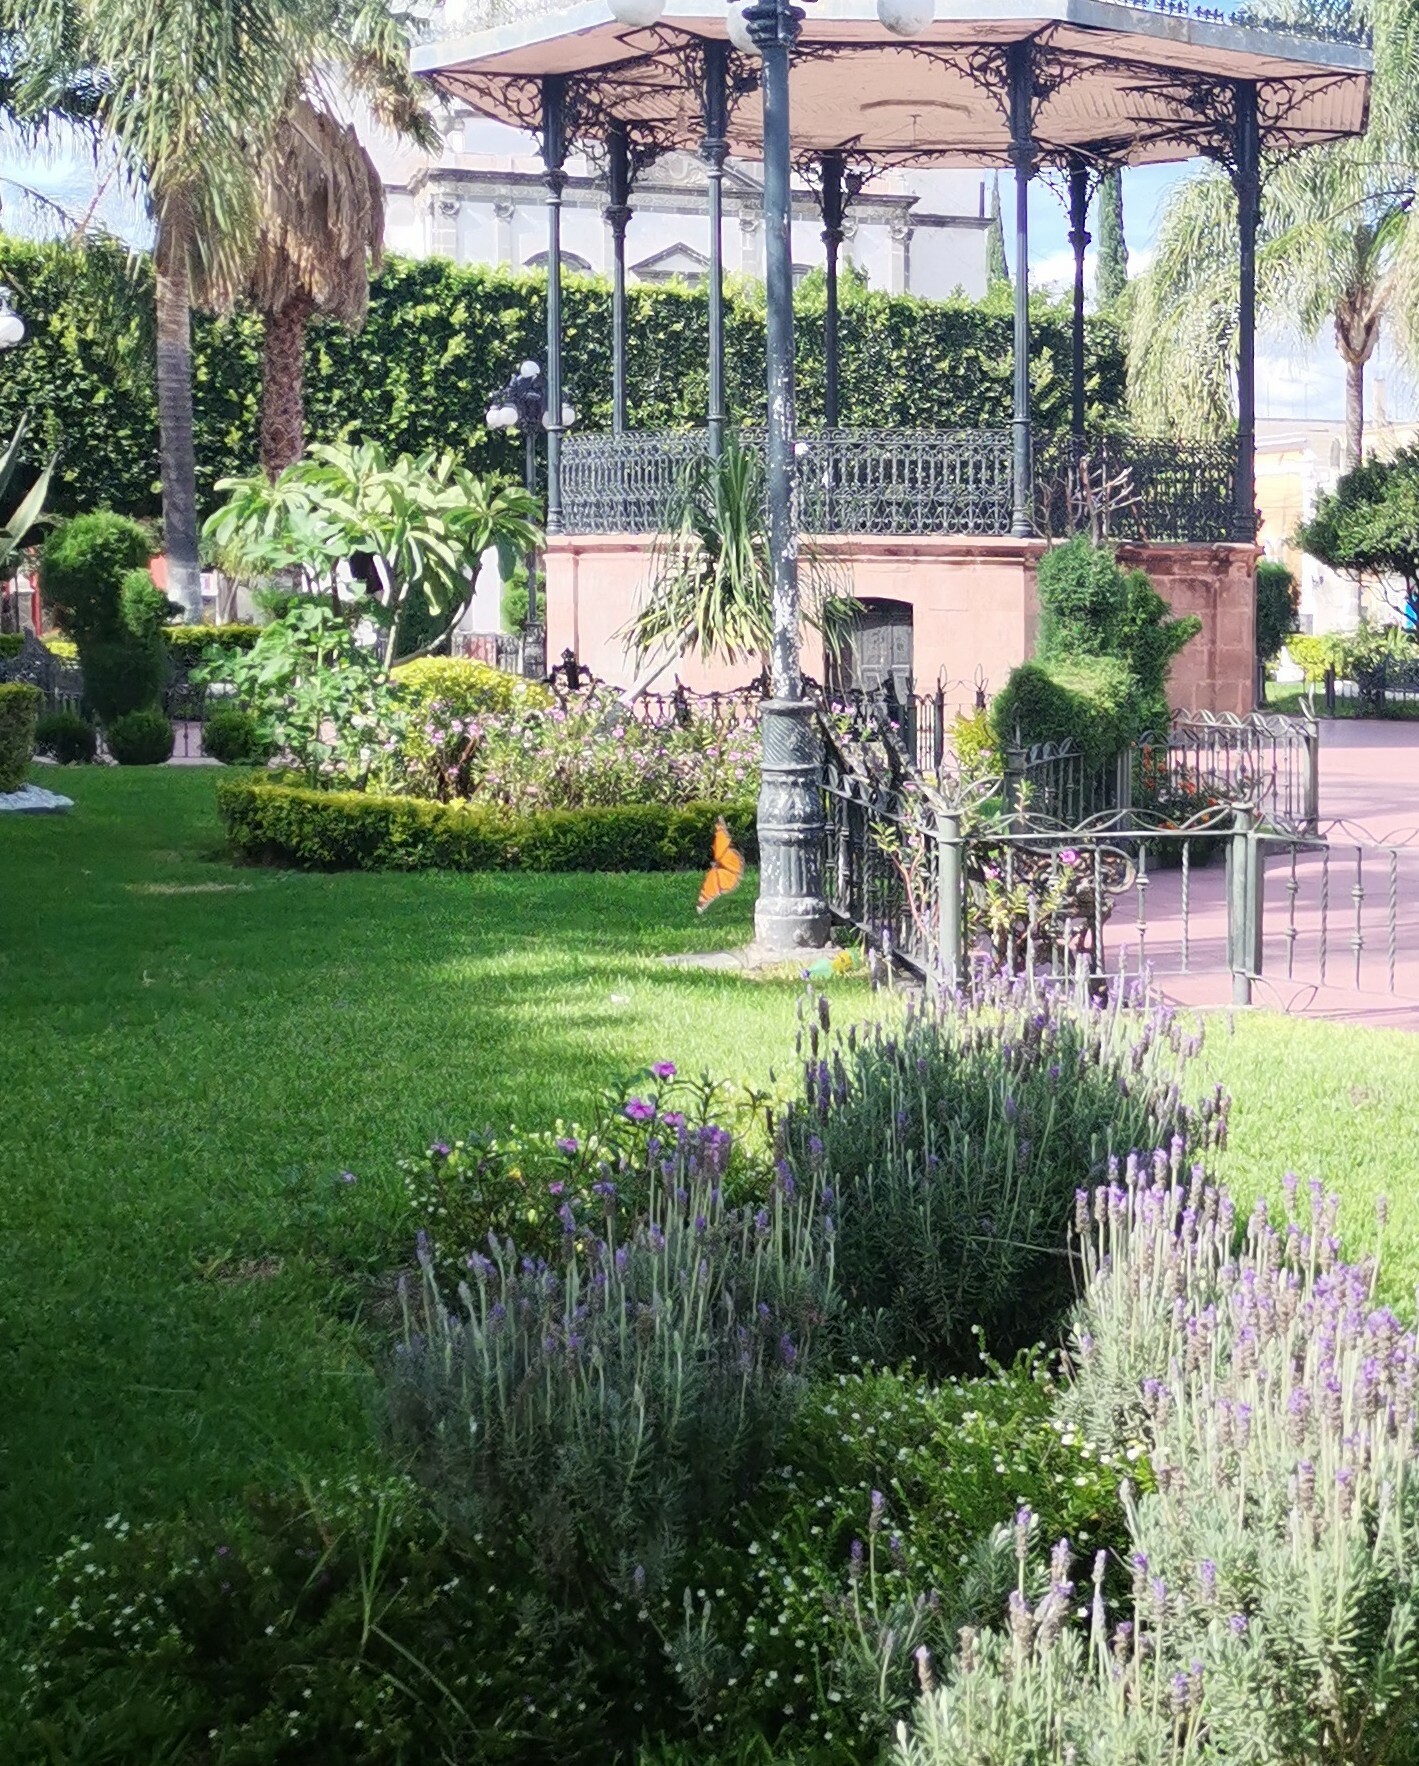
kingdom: Animalia
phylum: Arthropoda
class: Insecta
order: Lepidoptera
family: Nymphalidae
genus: Danaus
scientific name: Danaus plexippus
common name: Monarch
